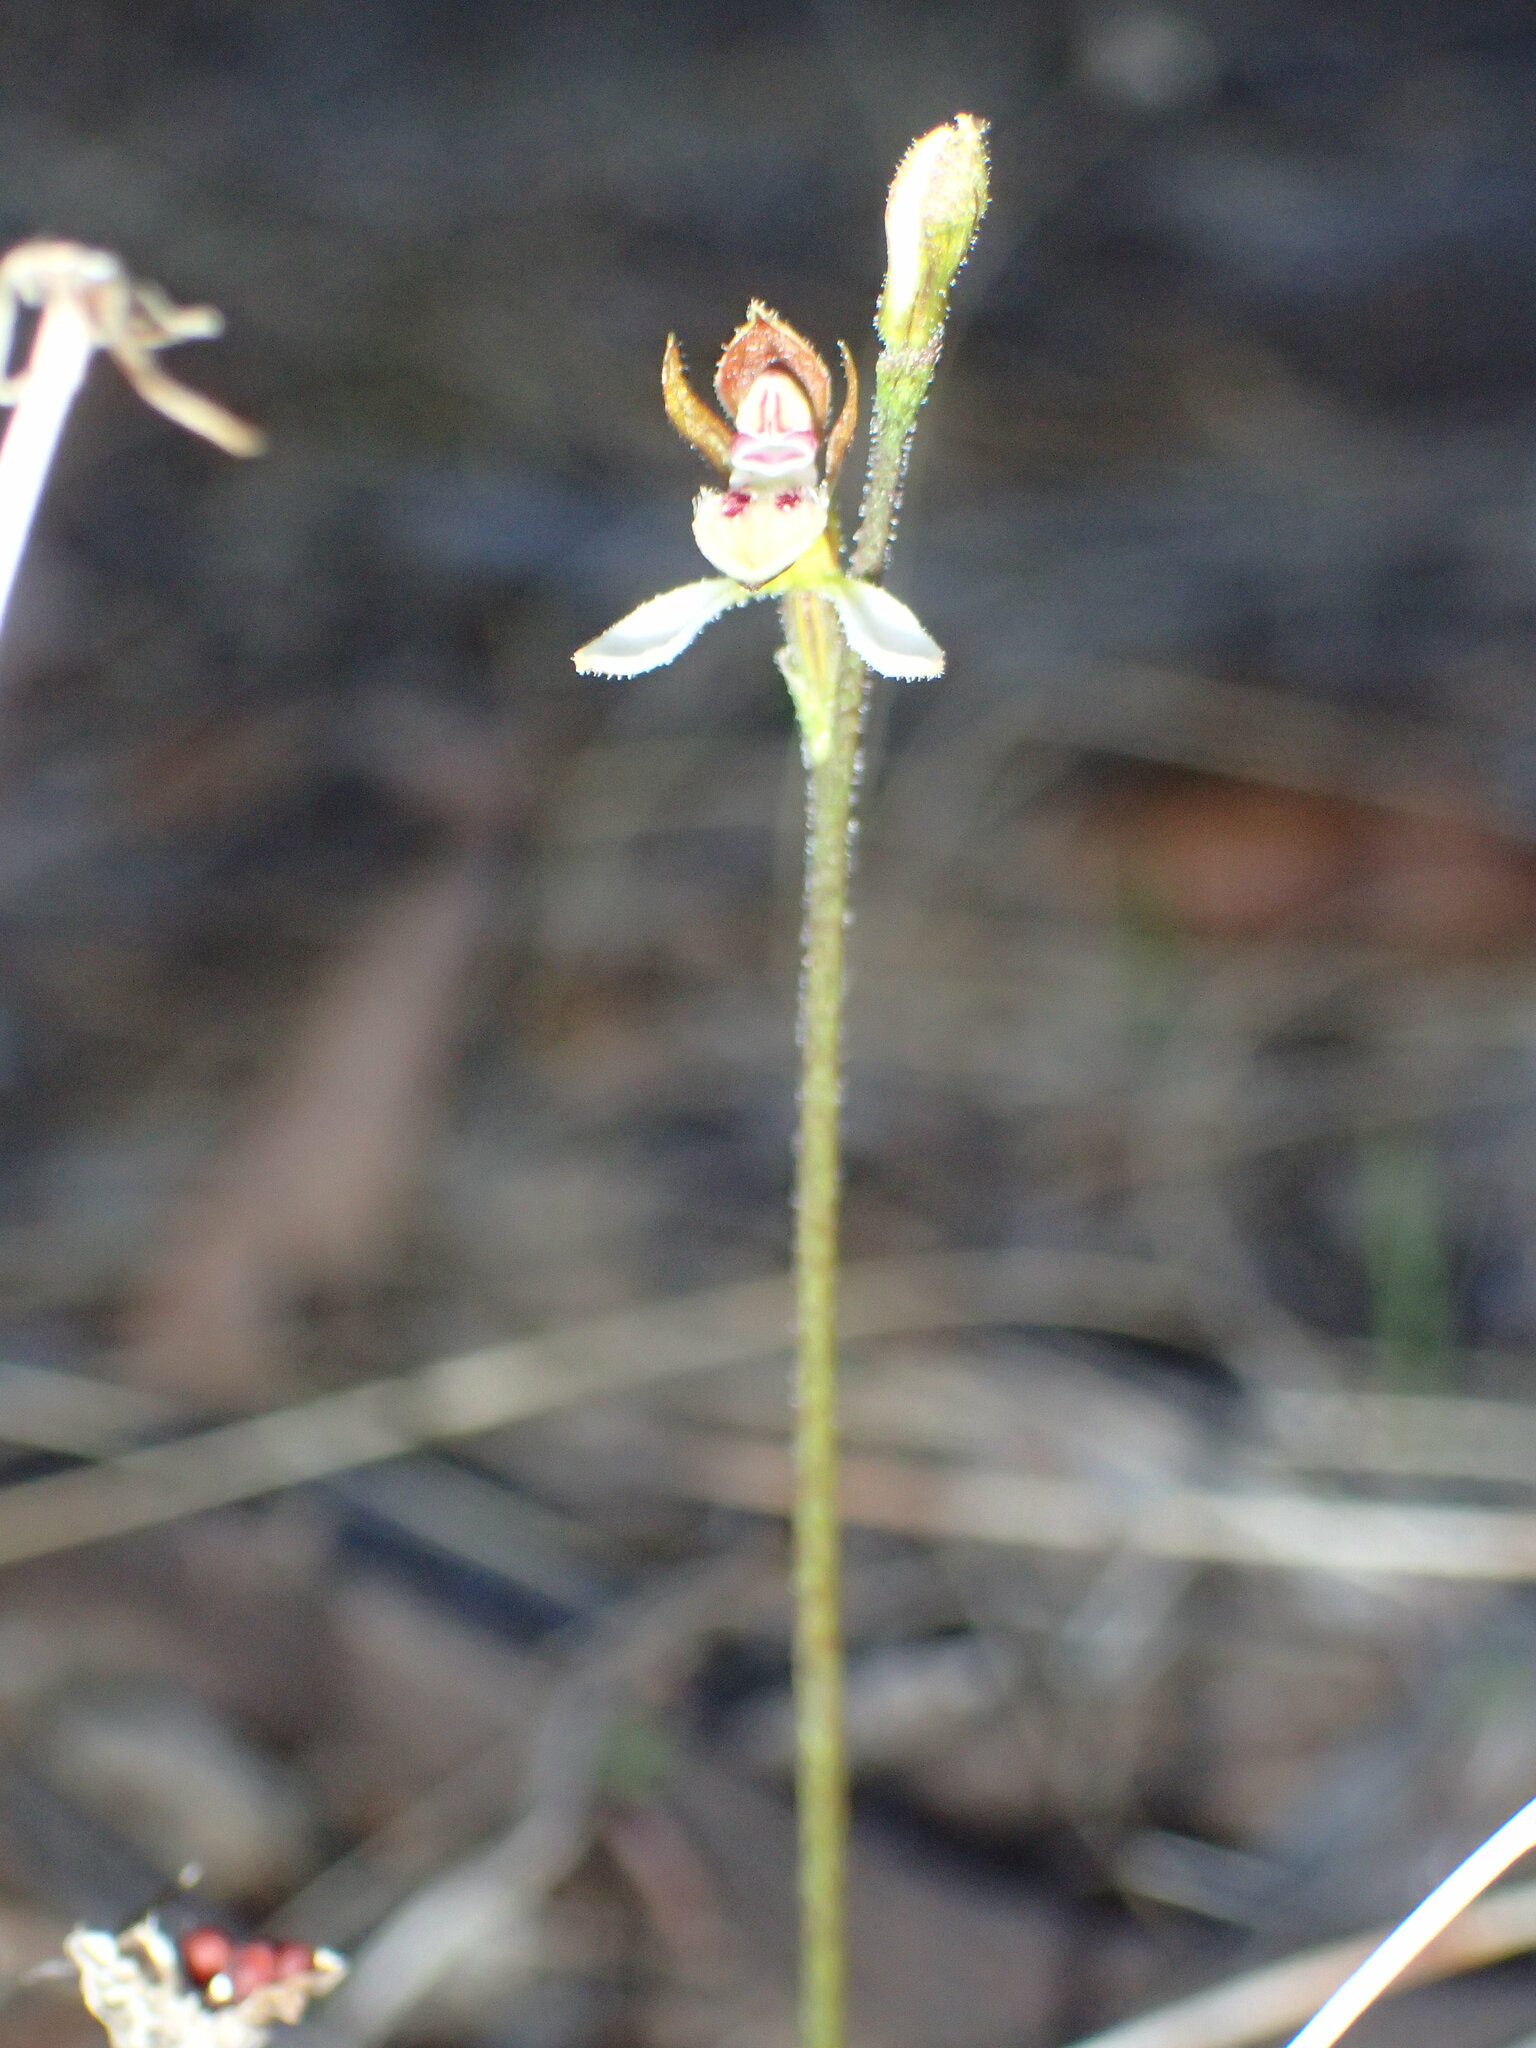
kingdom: Plantae
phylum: Tracheophyta
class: Liliopsida
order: Asparagales
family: Orchidaceae
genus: Eriochilus
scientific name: Eriochilus dilatatus
